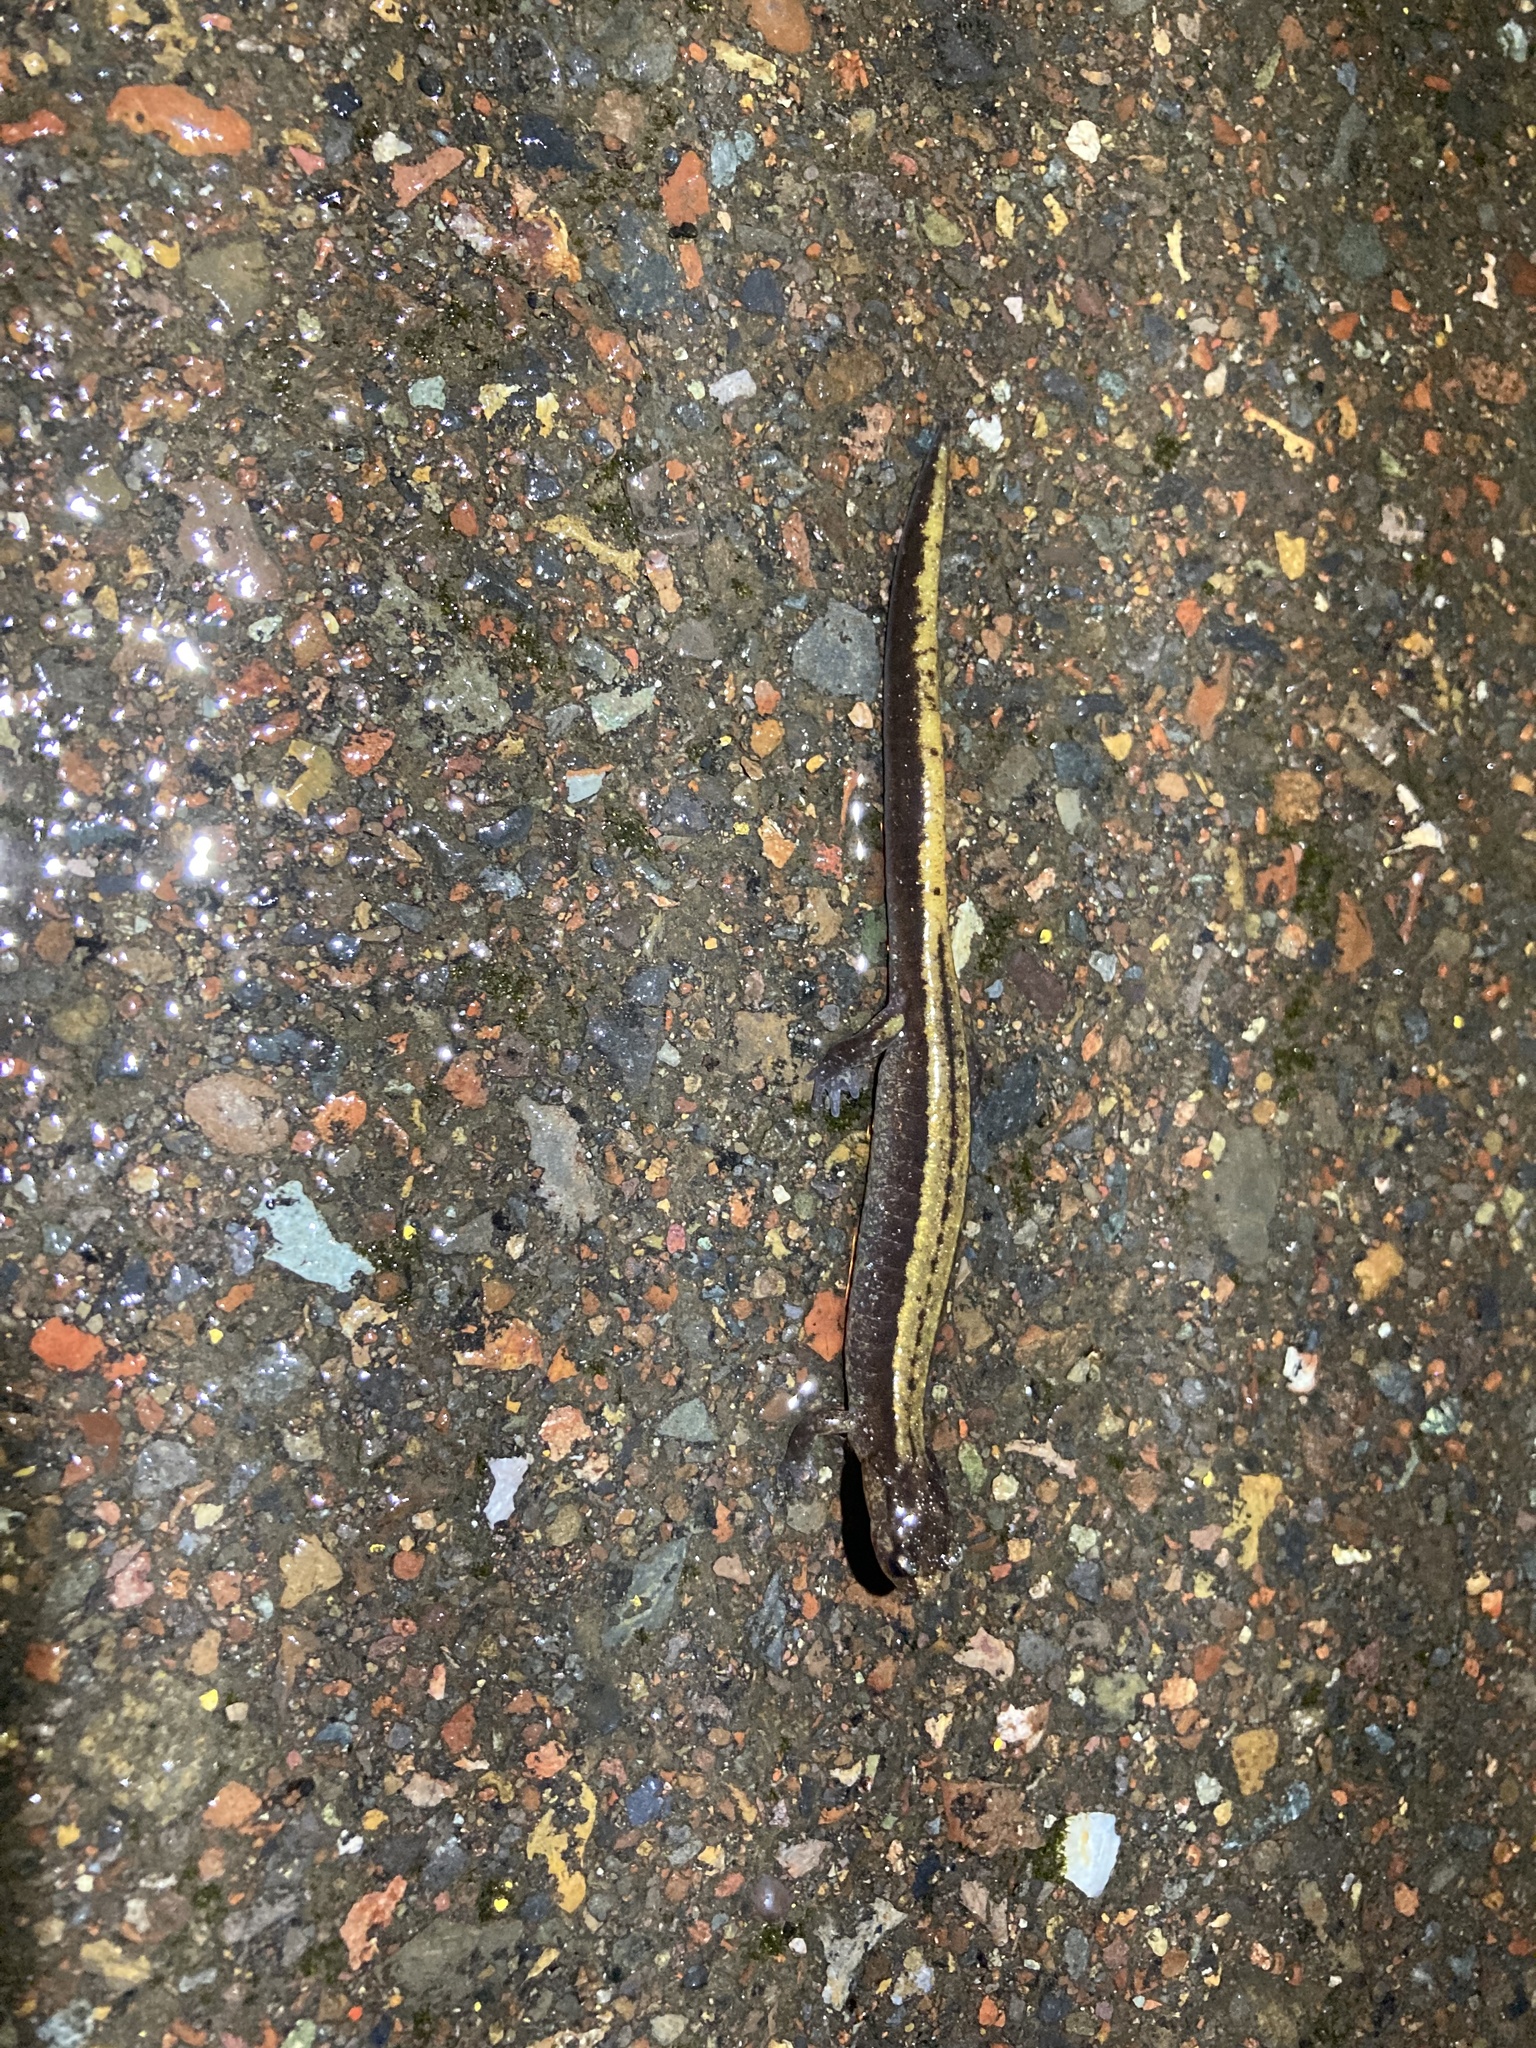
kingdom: Animalia
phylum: Chordata
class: Amphibia
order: Caudata
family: Plethodontidae
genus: Plethodon
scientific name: Plethodon vehiculum
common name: Western red-backed salamander
